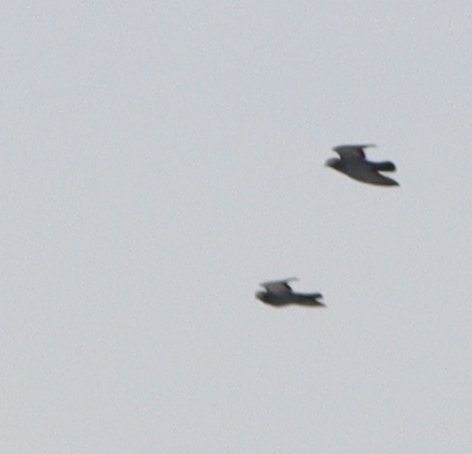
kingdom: Animalia
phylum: Chordata
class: Aves
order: Columbiformes
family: Columbidae
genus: Columba
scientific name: Columba livia
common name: Rock pigeon
